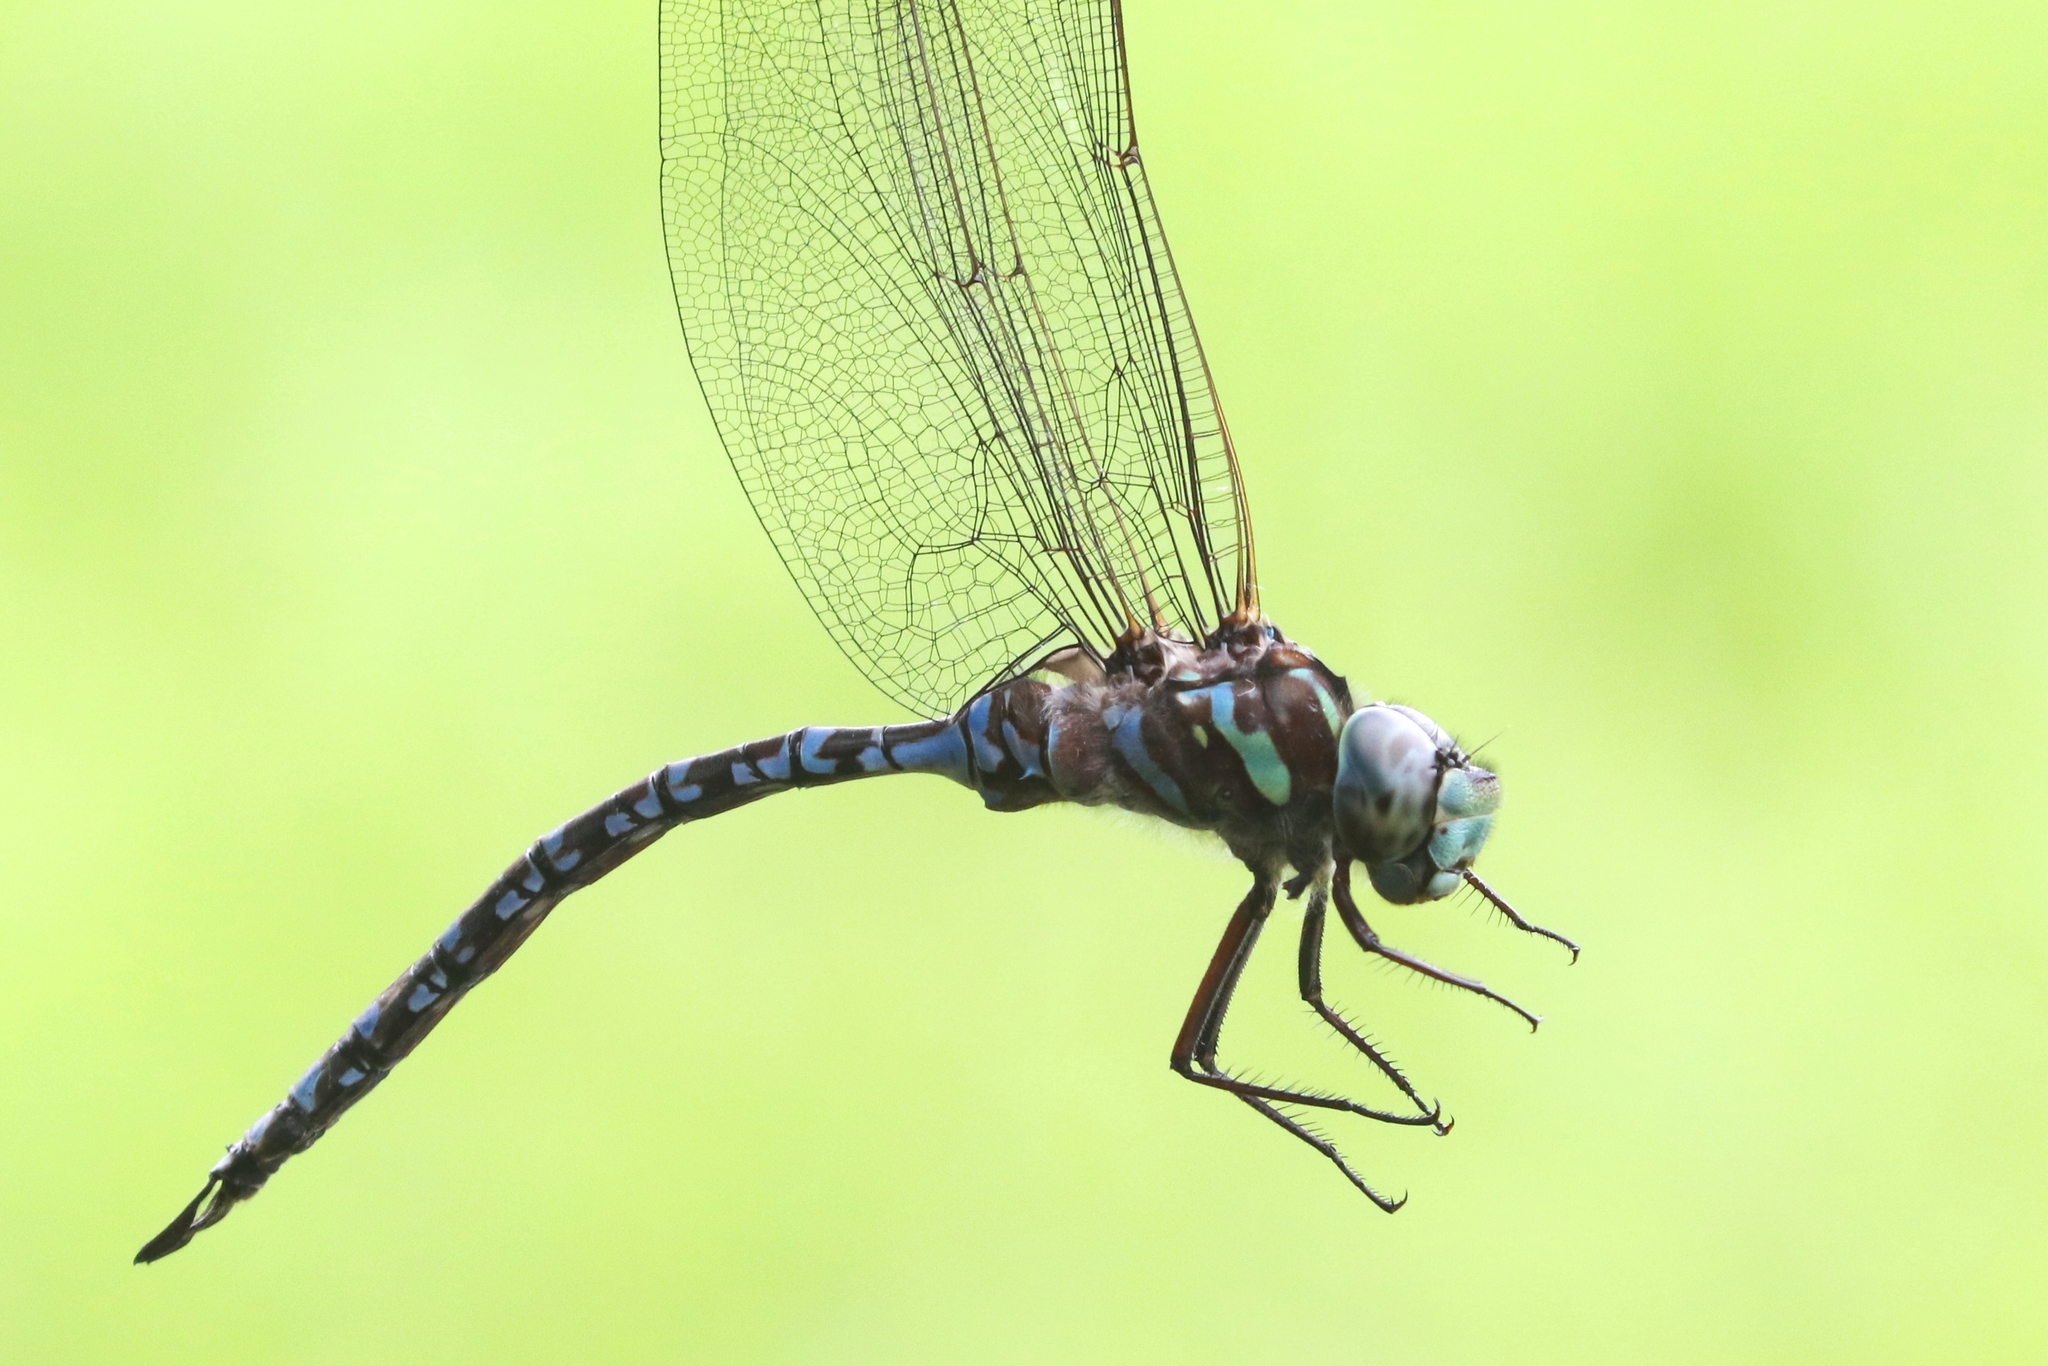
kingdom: Animalia
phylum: Arthropoda
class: Insecta
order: Odonata
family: Aeshnidae
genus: Aeshna
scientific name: Aeshna canadensis
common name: Canada darner
